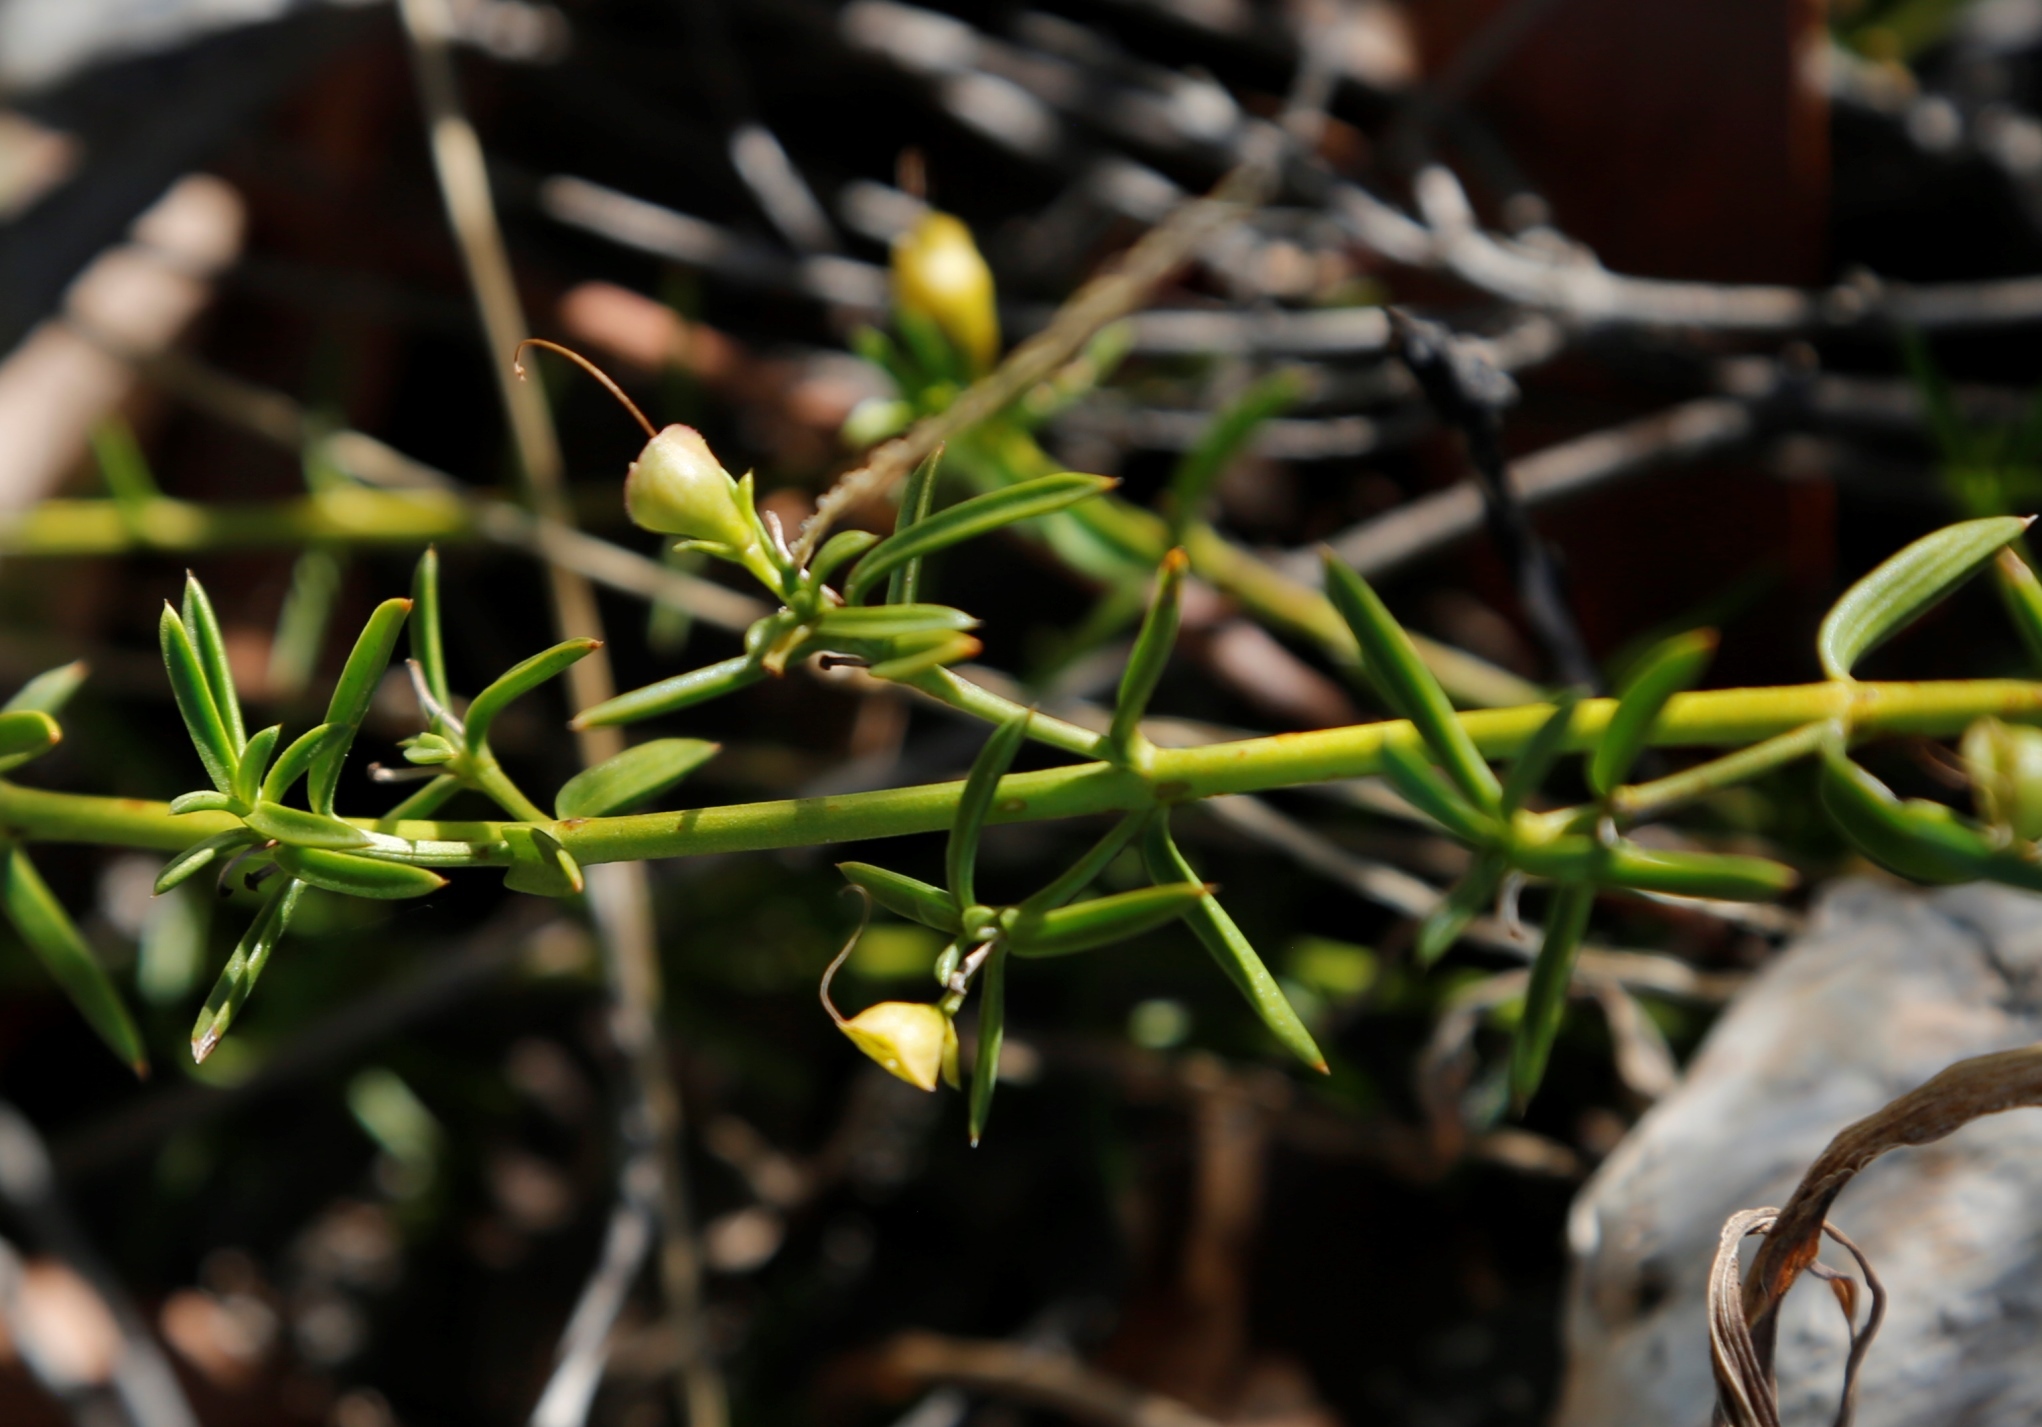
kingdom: Plantae
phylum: Tracheophyta
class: Magnoliopsida
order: Lamiales
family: Lamiaceae
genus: Hemiandra
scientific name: Hemiandra pungens
